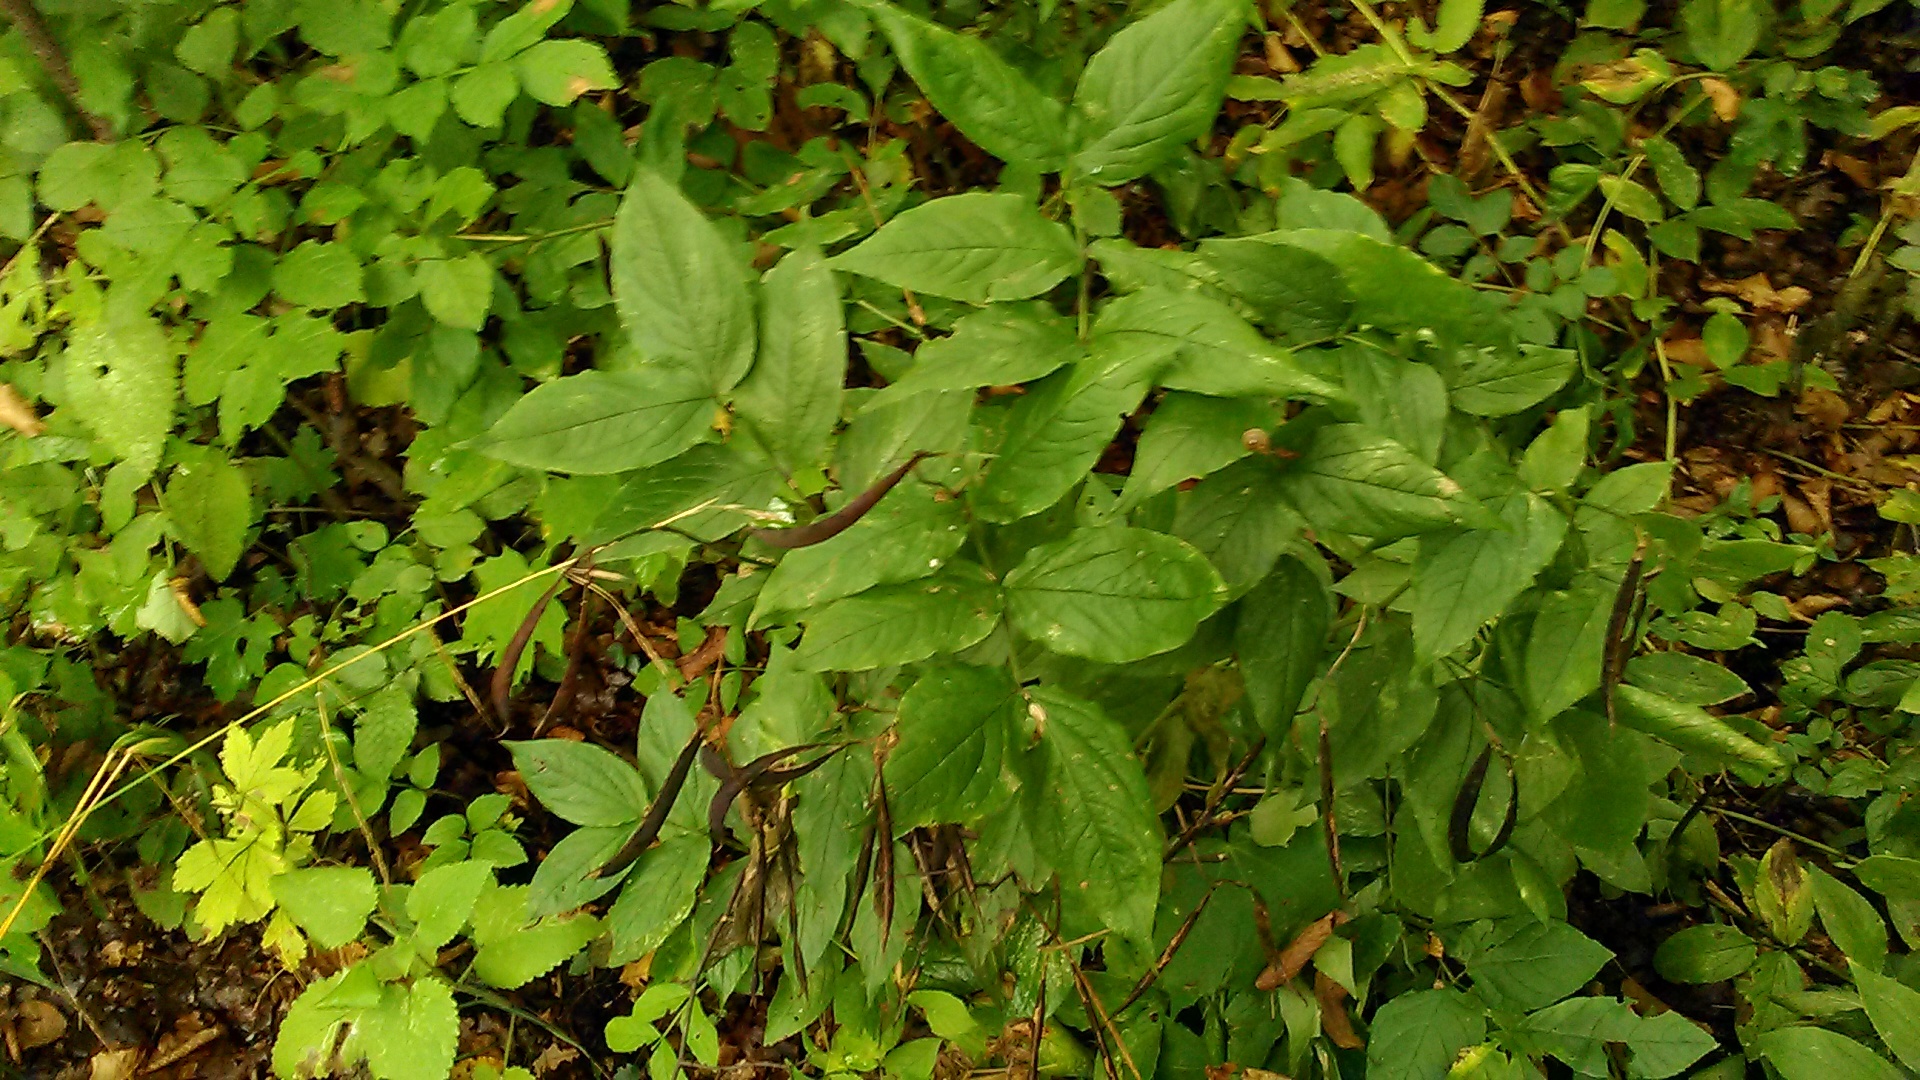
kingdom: Plantae
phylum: Tracheophyta
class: Magnoliopsida
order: Fabales
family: Fabaceae
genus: Lathyrus
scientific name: Lathyrus aureus
